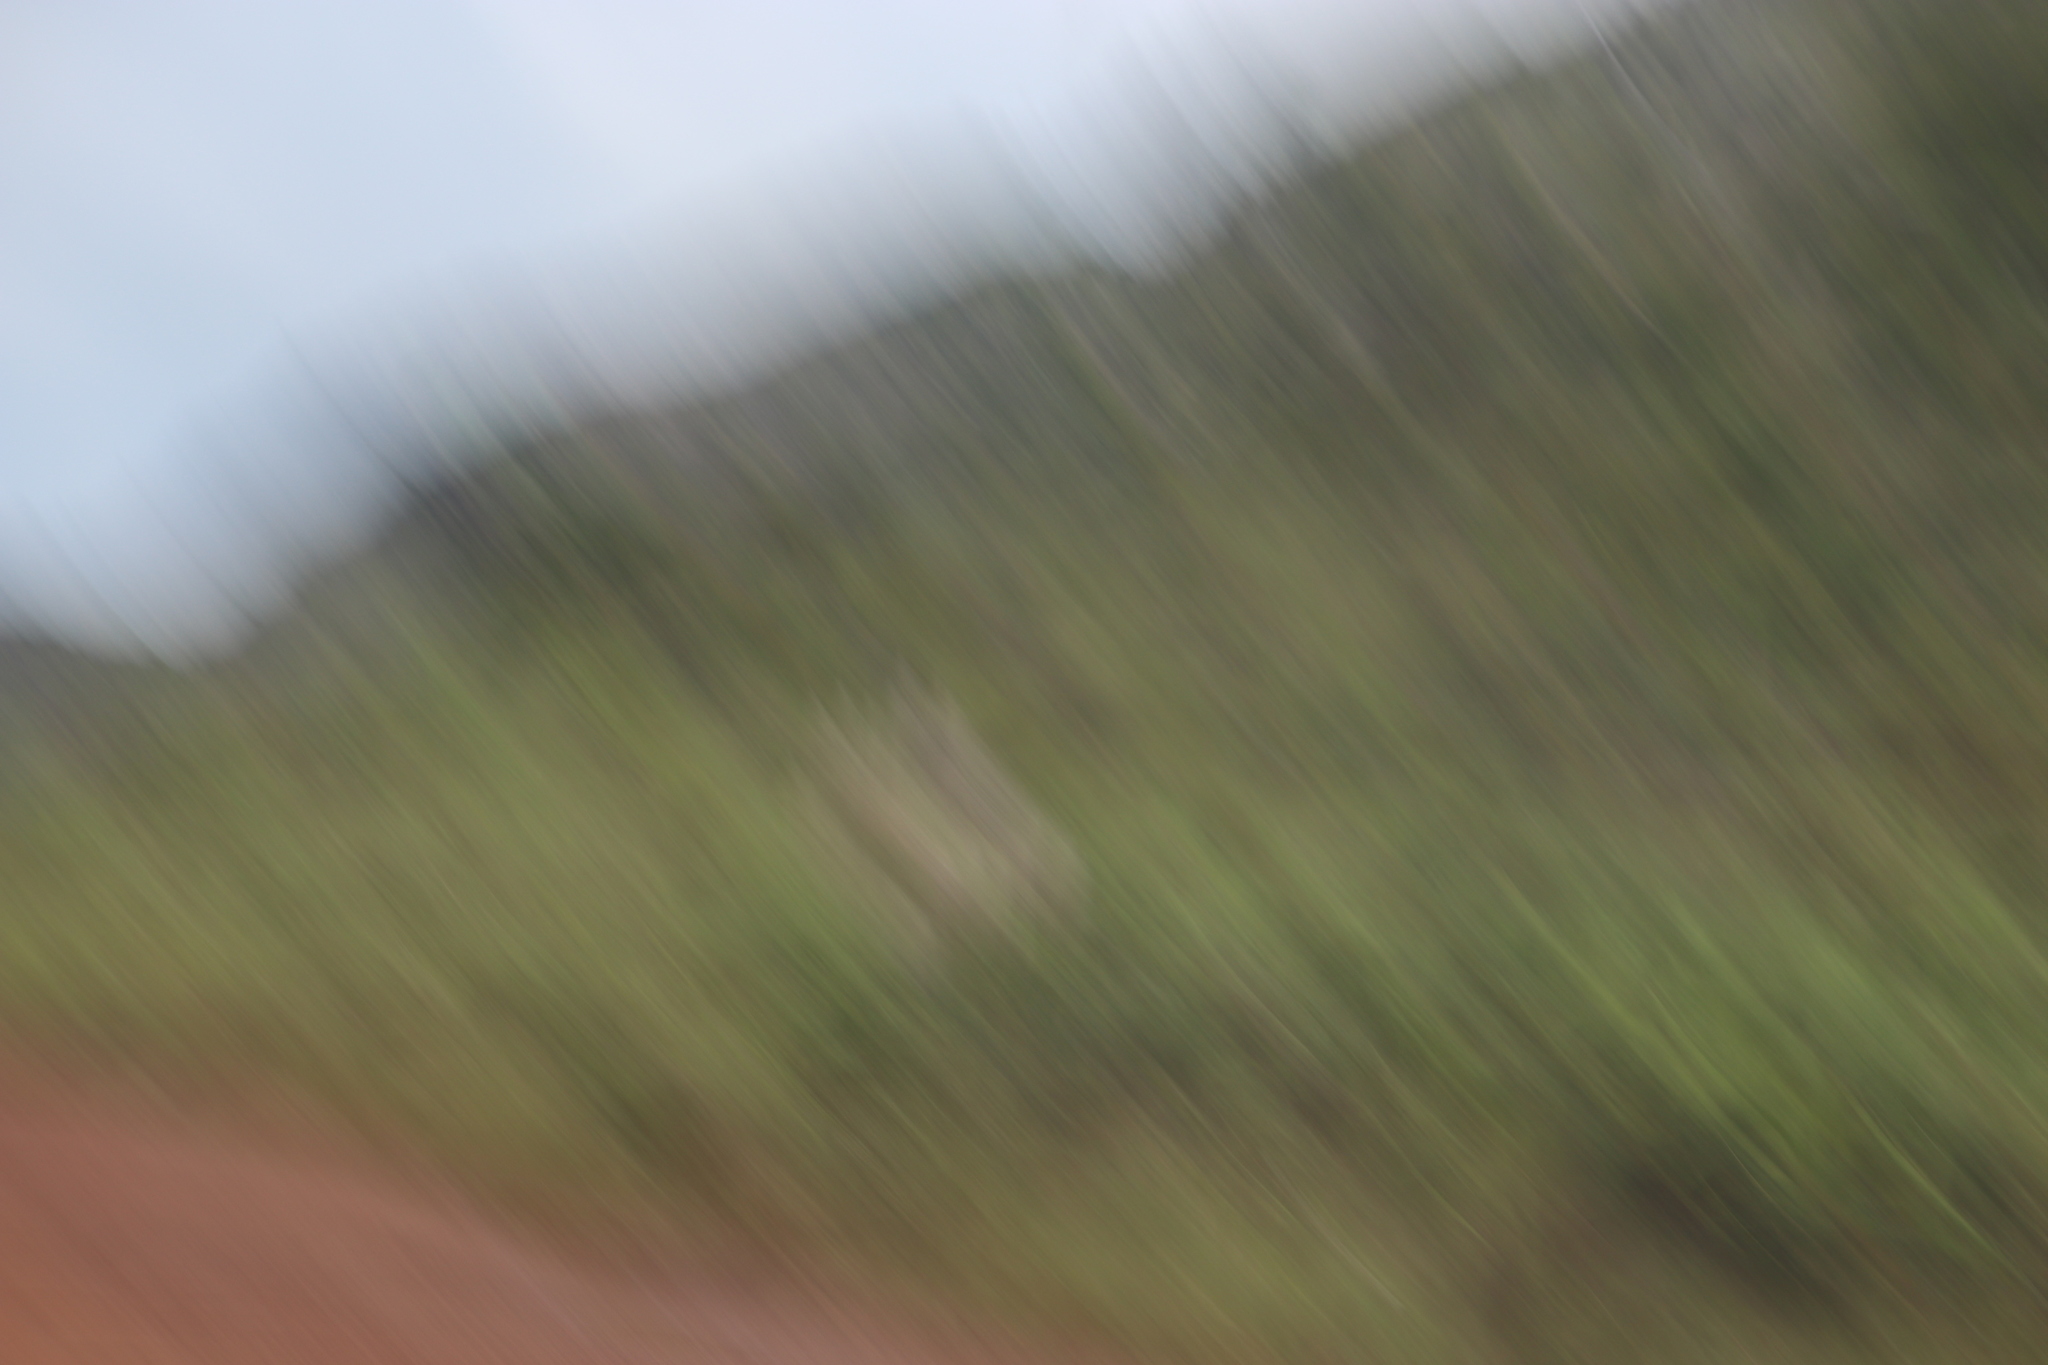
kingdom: Plantae
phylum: Tracheophyta
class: Liliopsida
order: Poales
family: Poaceae
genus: Cortaderia
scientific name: Cortaderia selloana
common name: Uruguayan pampas grass
